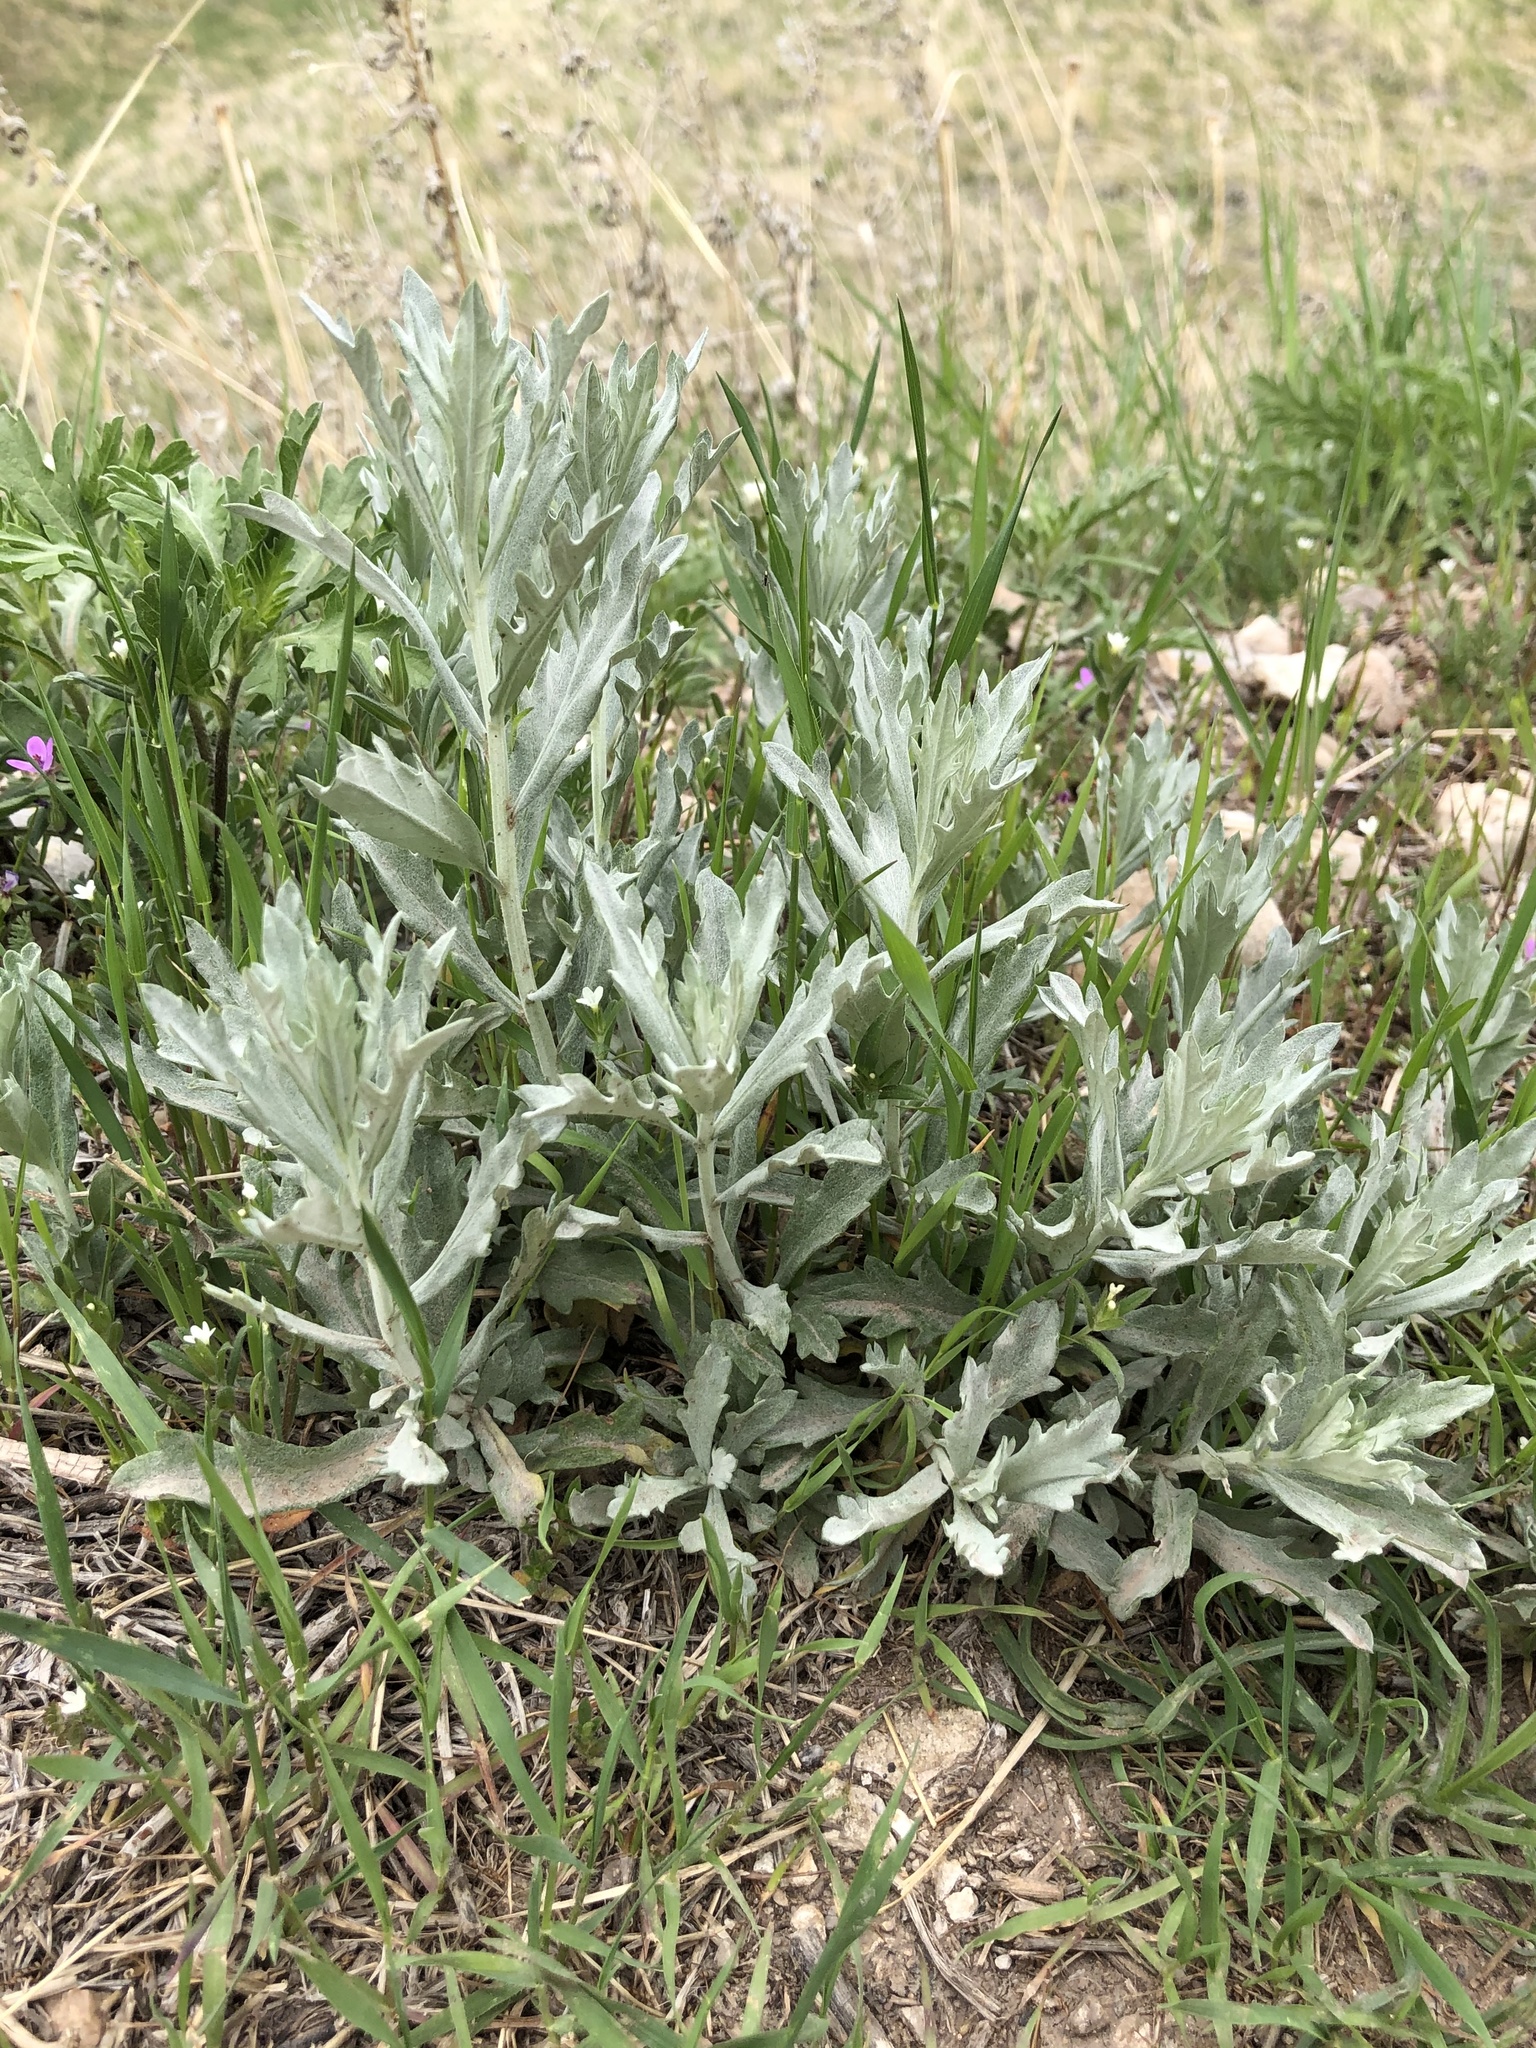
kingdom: Plantae
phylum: Tracheophyta
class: Magnoliopsida
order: Asterales
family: Asteraceae
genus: Artemisia
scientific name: Artemisia ludoviciana
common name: Western mugwort
